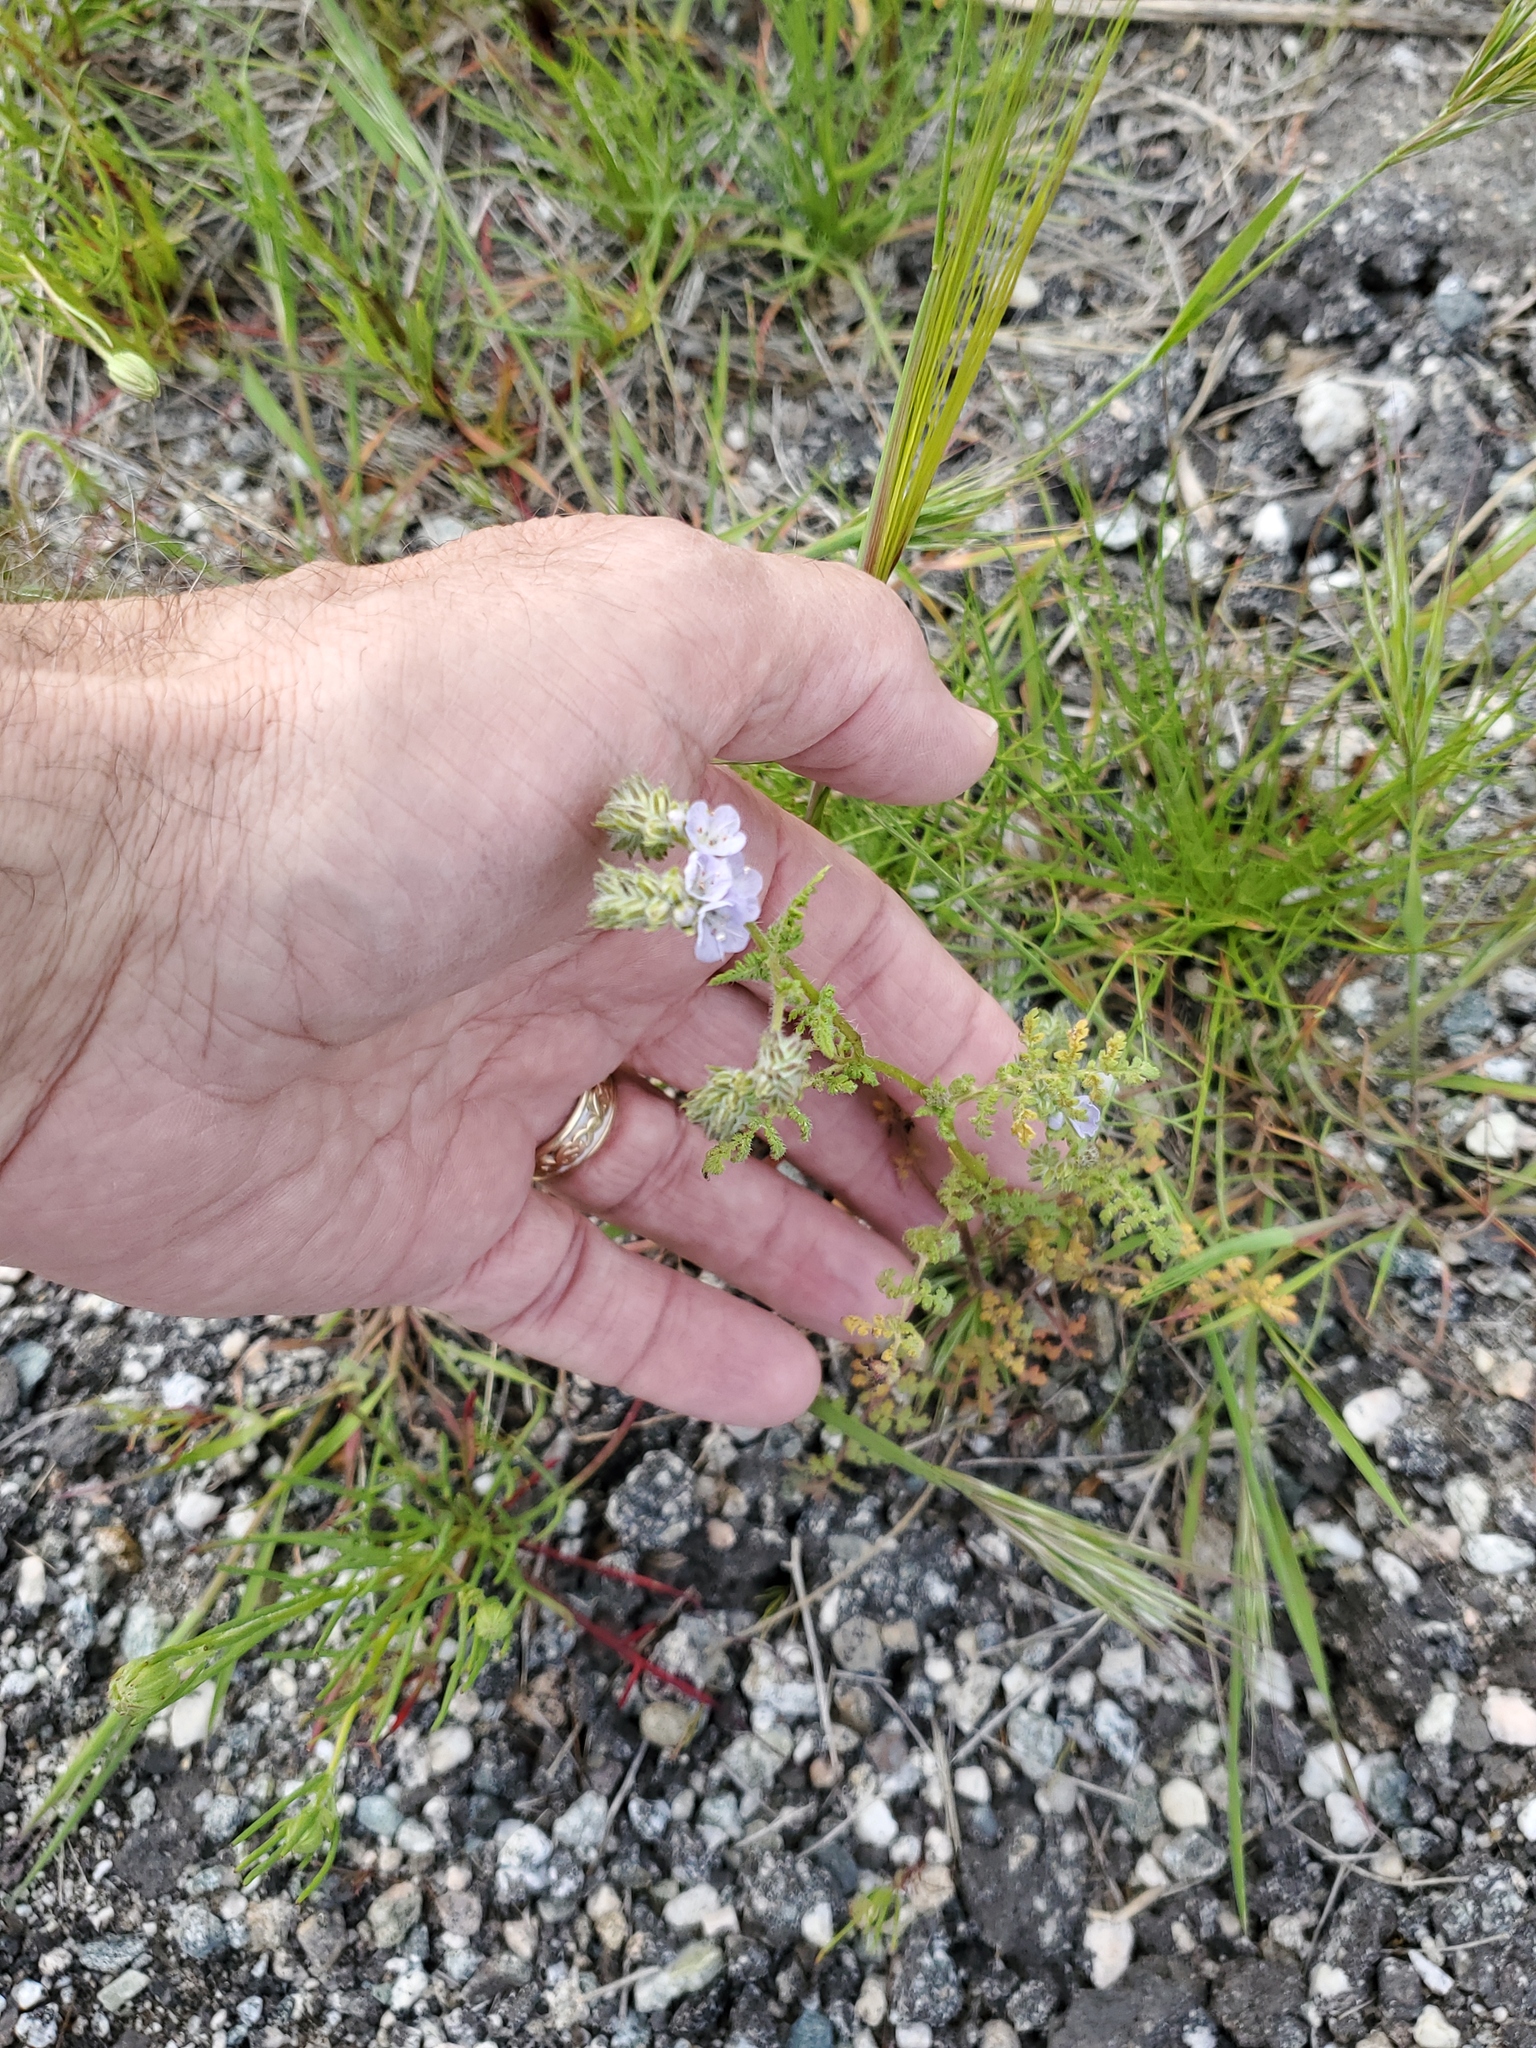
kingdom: Plantae
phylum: Tracheophyta
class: Magnoliopsida
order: Boraginales
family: Hydrophyllaceae
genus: Phacelia
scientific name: Phacelia distans
